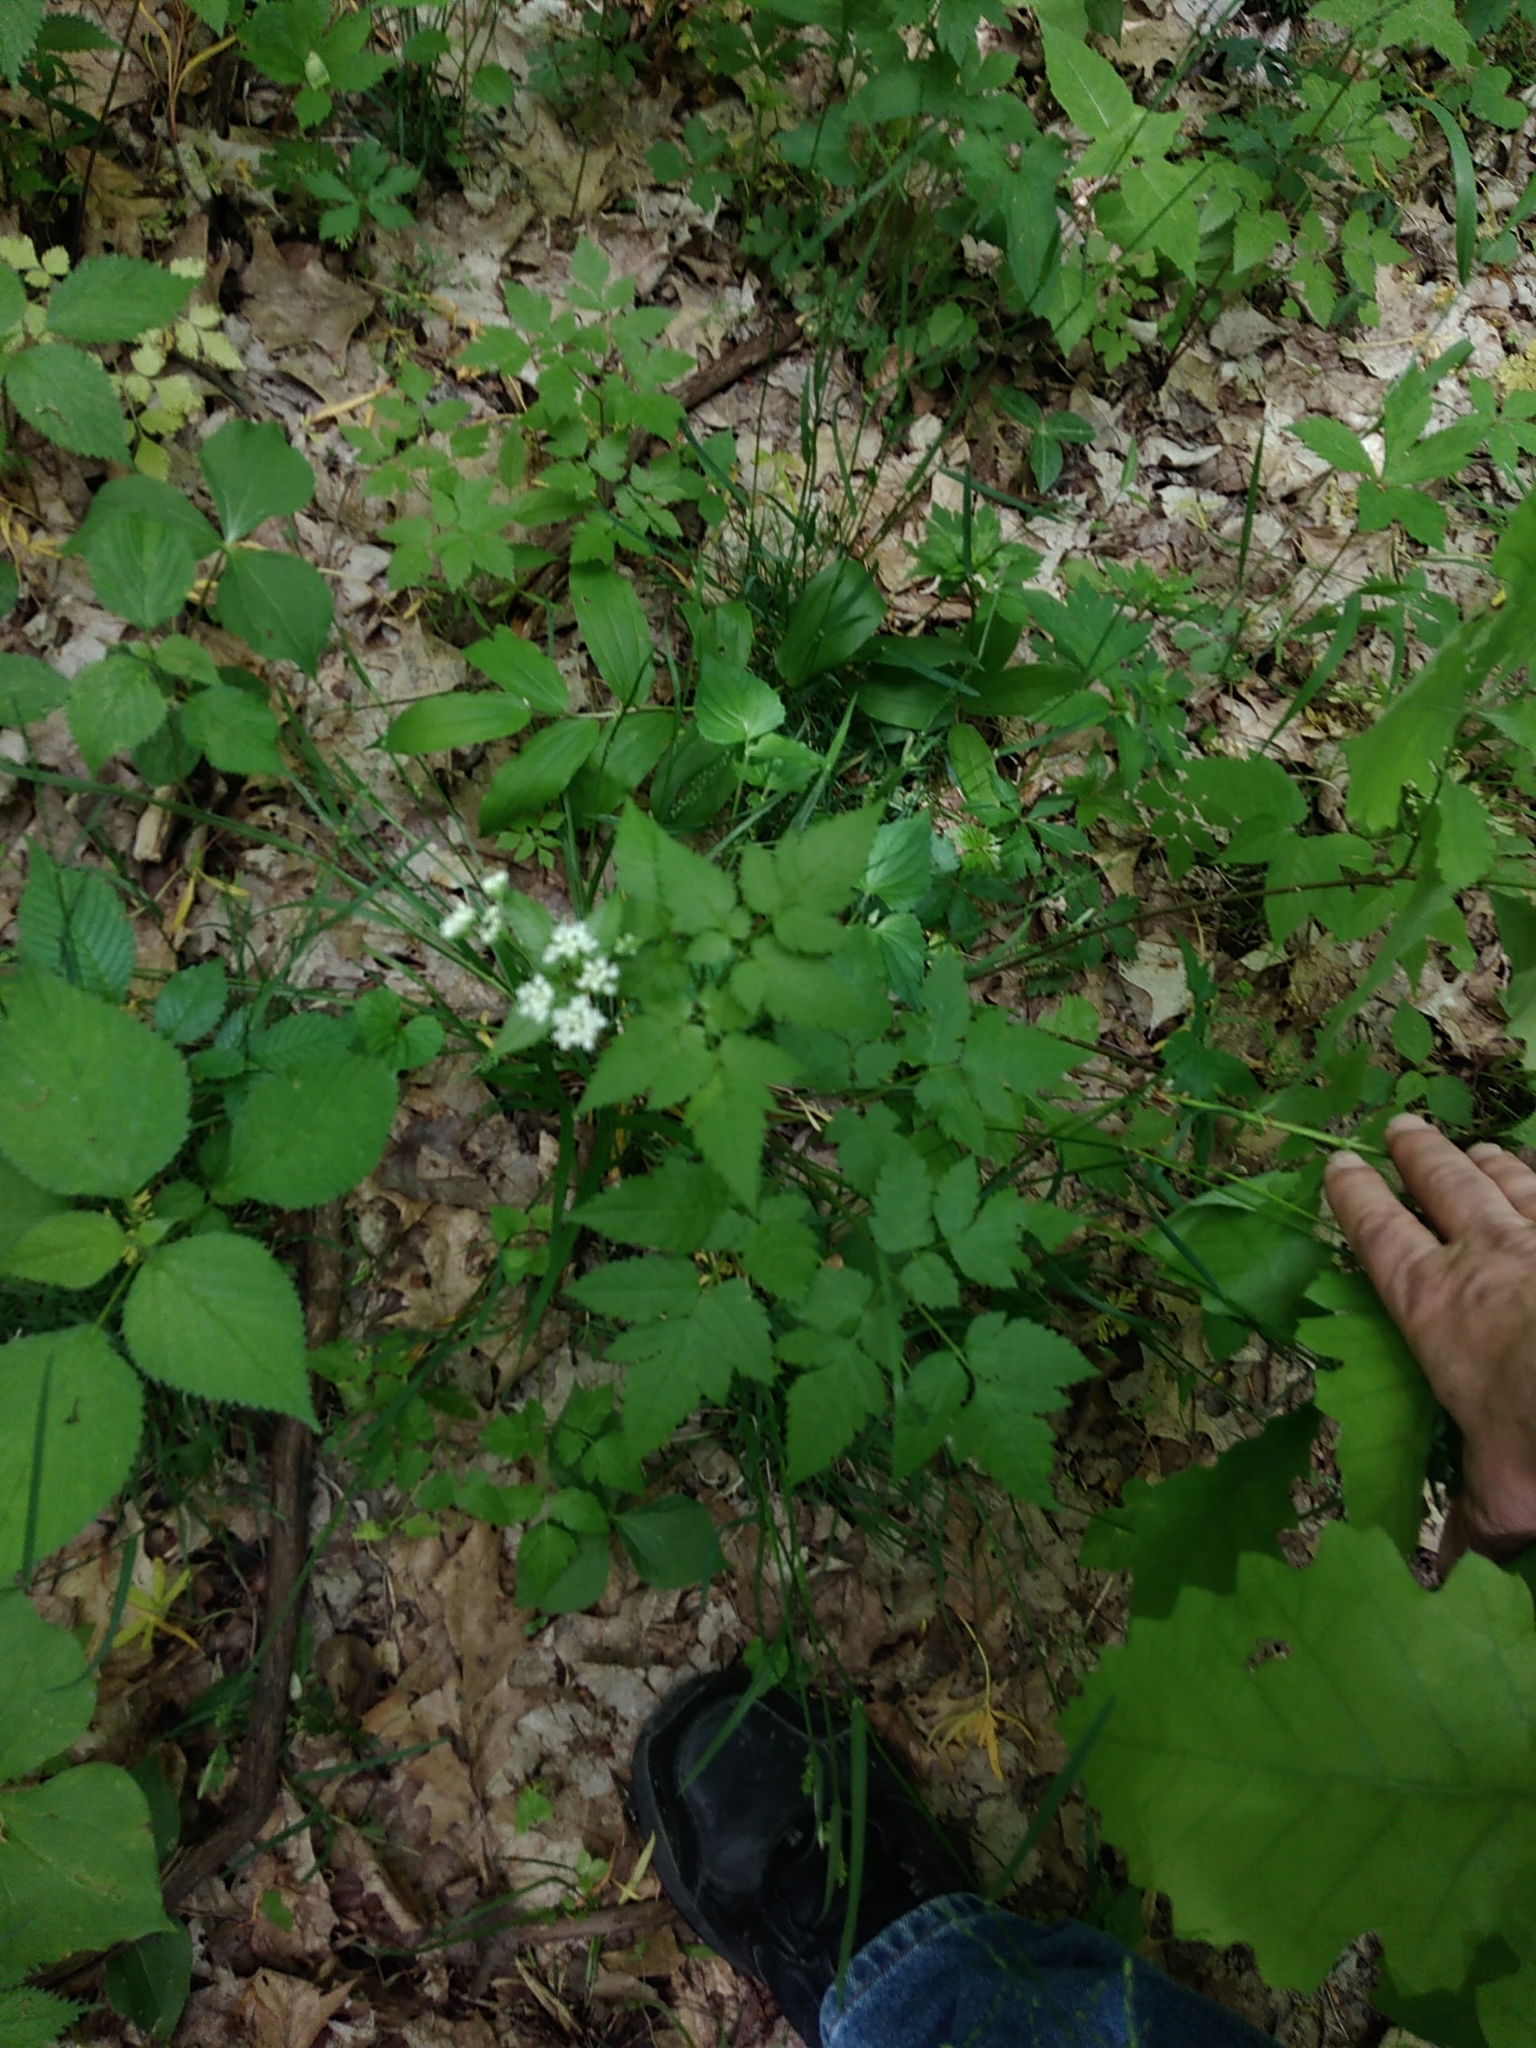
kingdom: Plantae
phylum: Tracheophyta
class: Magnoliopsida
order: Apiales
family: Apiaceae
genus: Osmorhiza
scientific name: Osmorhiza claytonii
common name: Hairy sweet cicely
